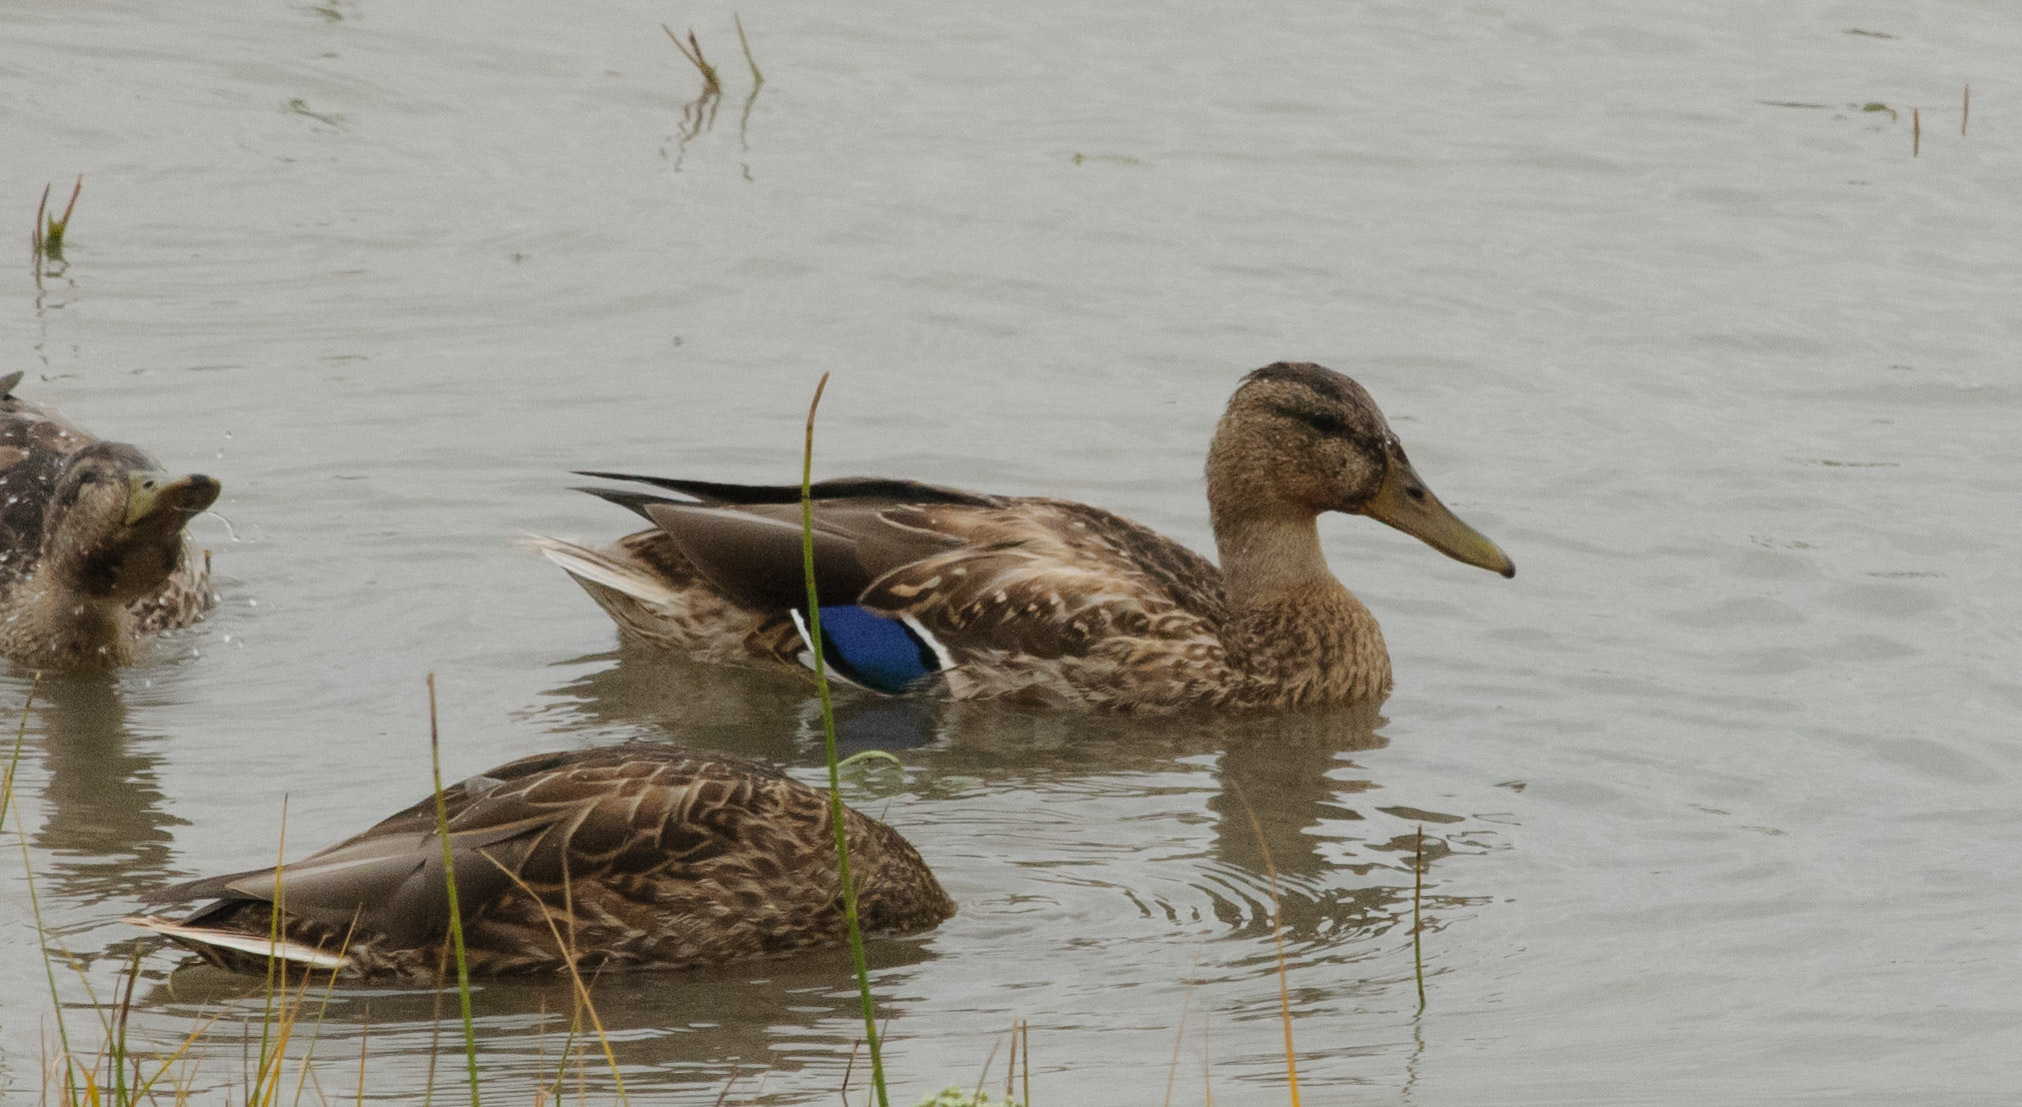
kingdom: Animalia
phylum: Chordata
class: Aves
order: Anseriformes
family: Anatidae
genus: Anas
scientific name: Anas platyrhynchos
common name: Mallard
